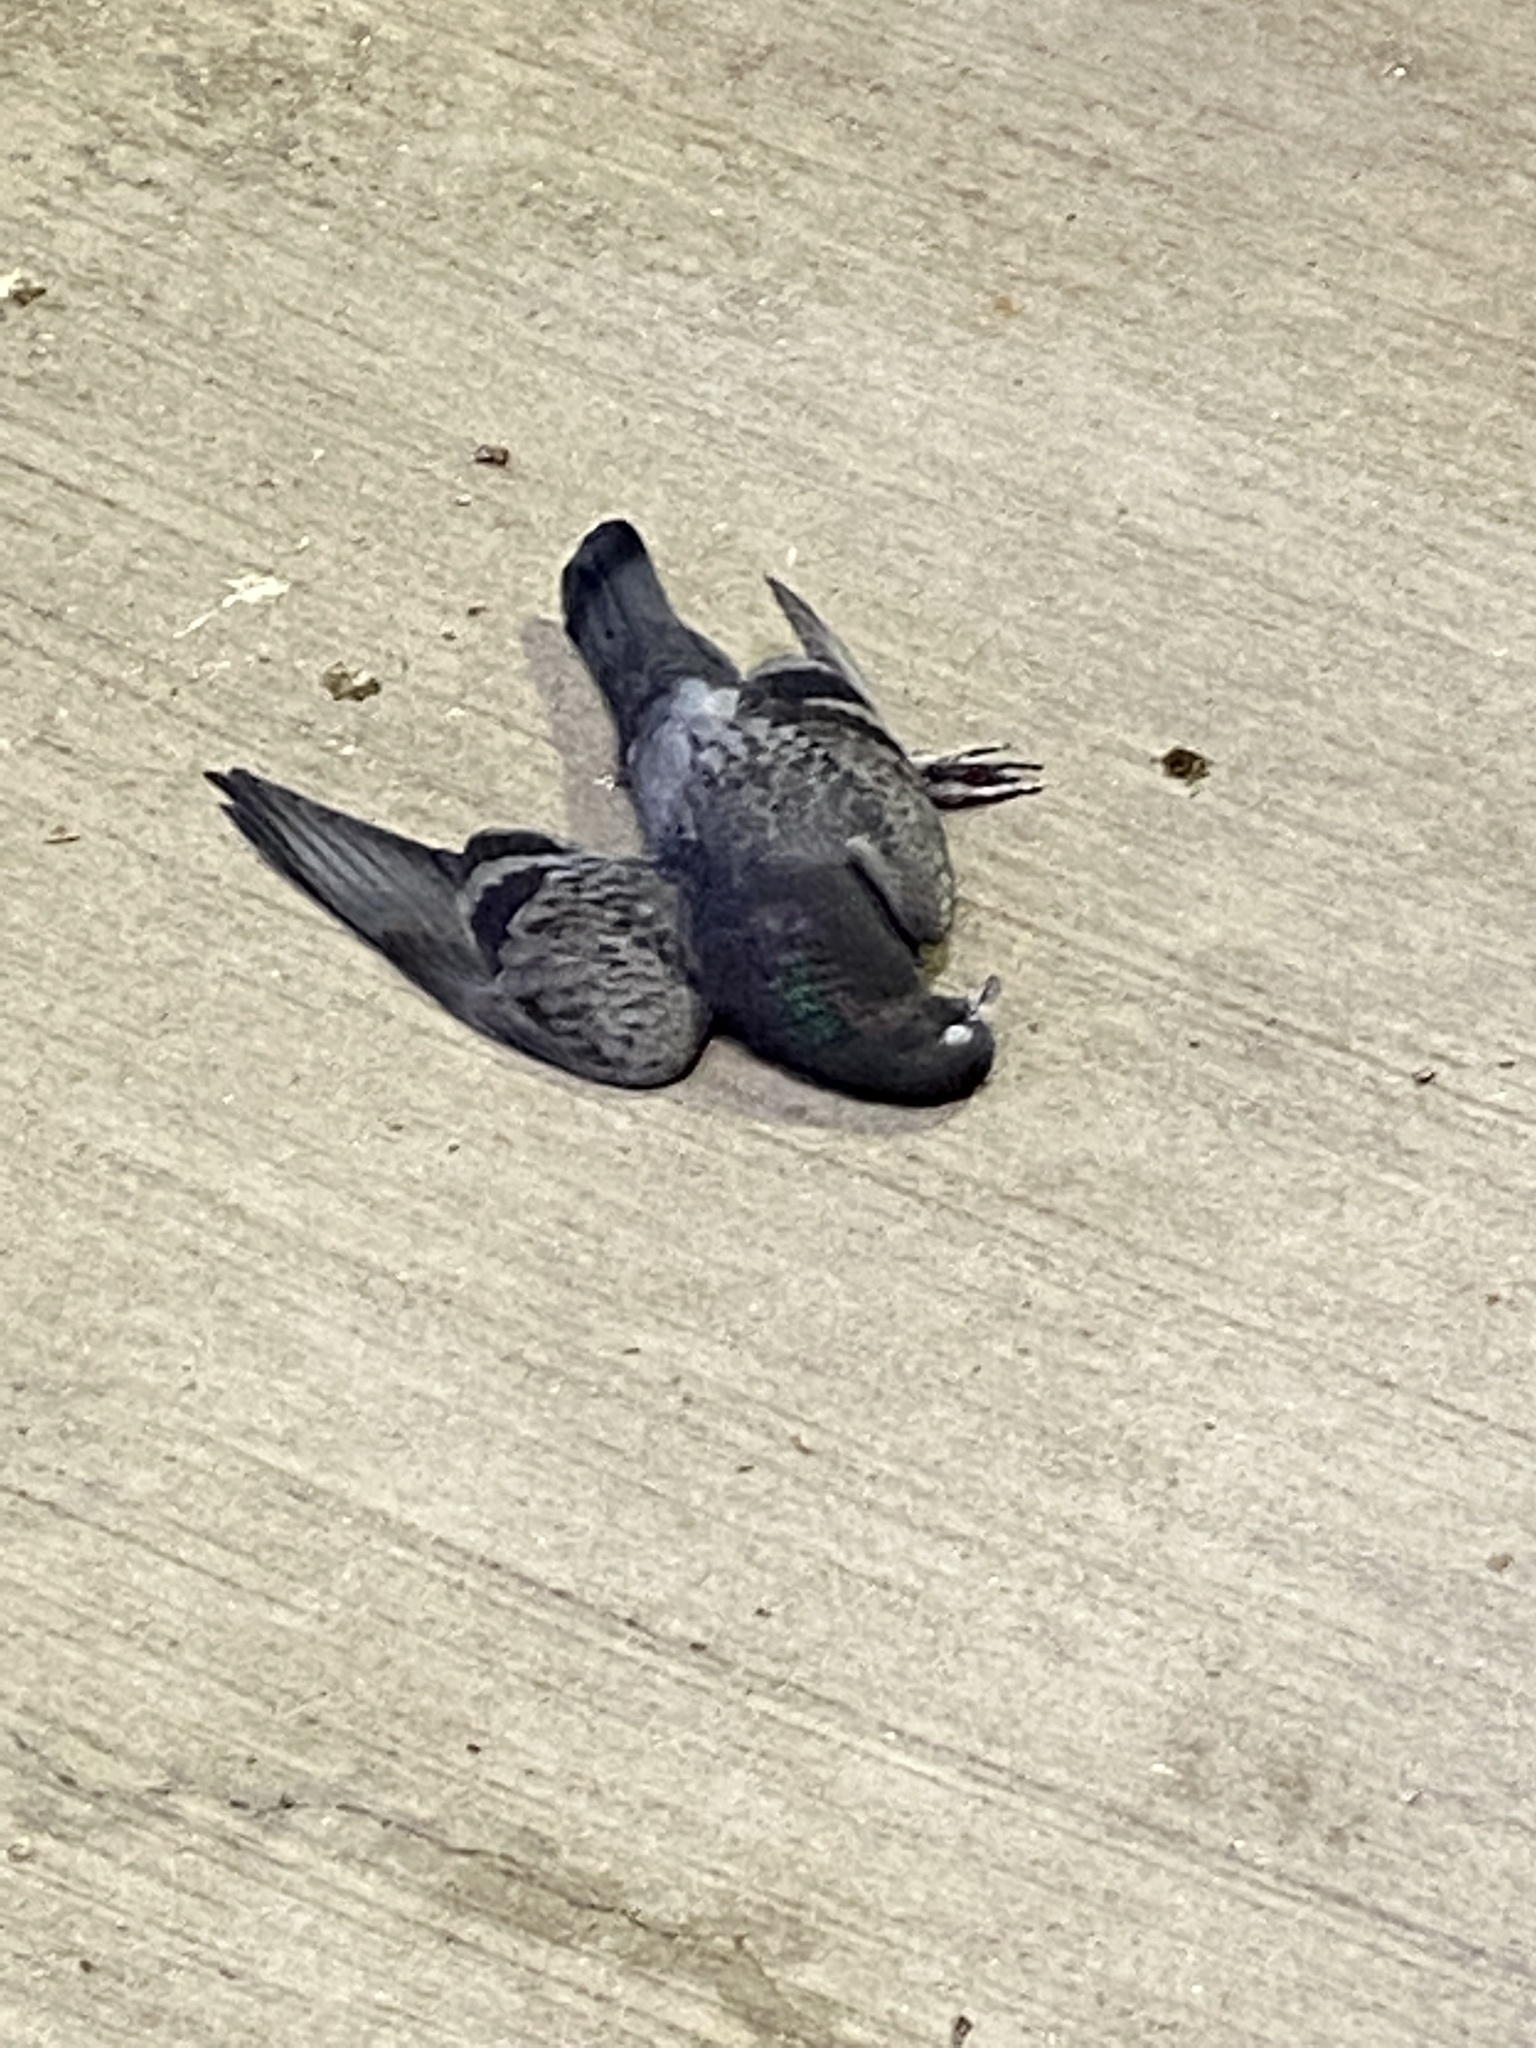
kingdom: Animalia
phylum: Chordata
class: Aves
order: Columbiformes
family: Columbidae
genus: Columba
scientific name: Columba livia
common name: Rock pigeon
